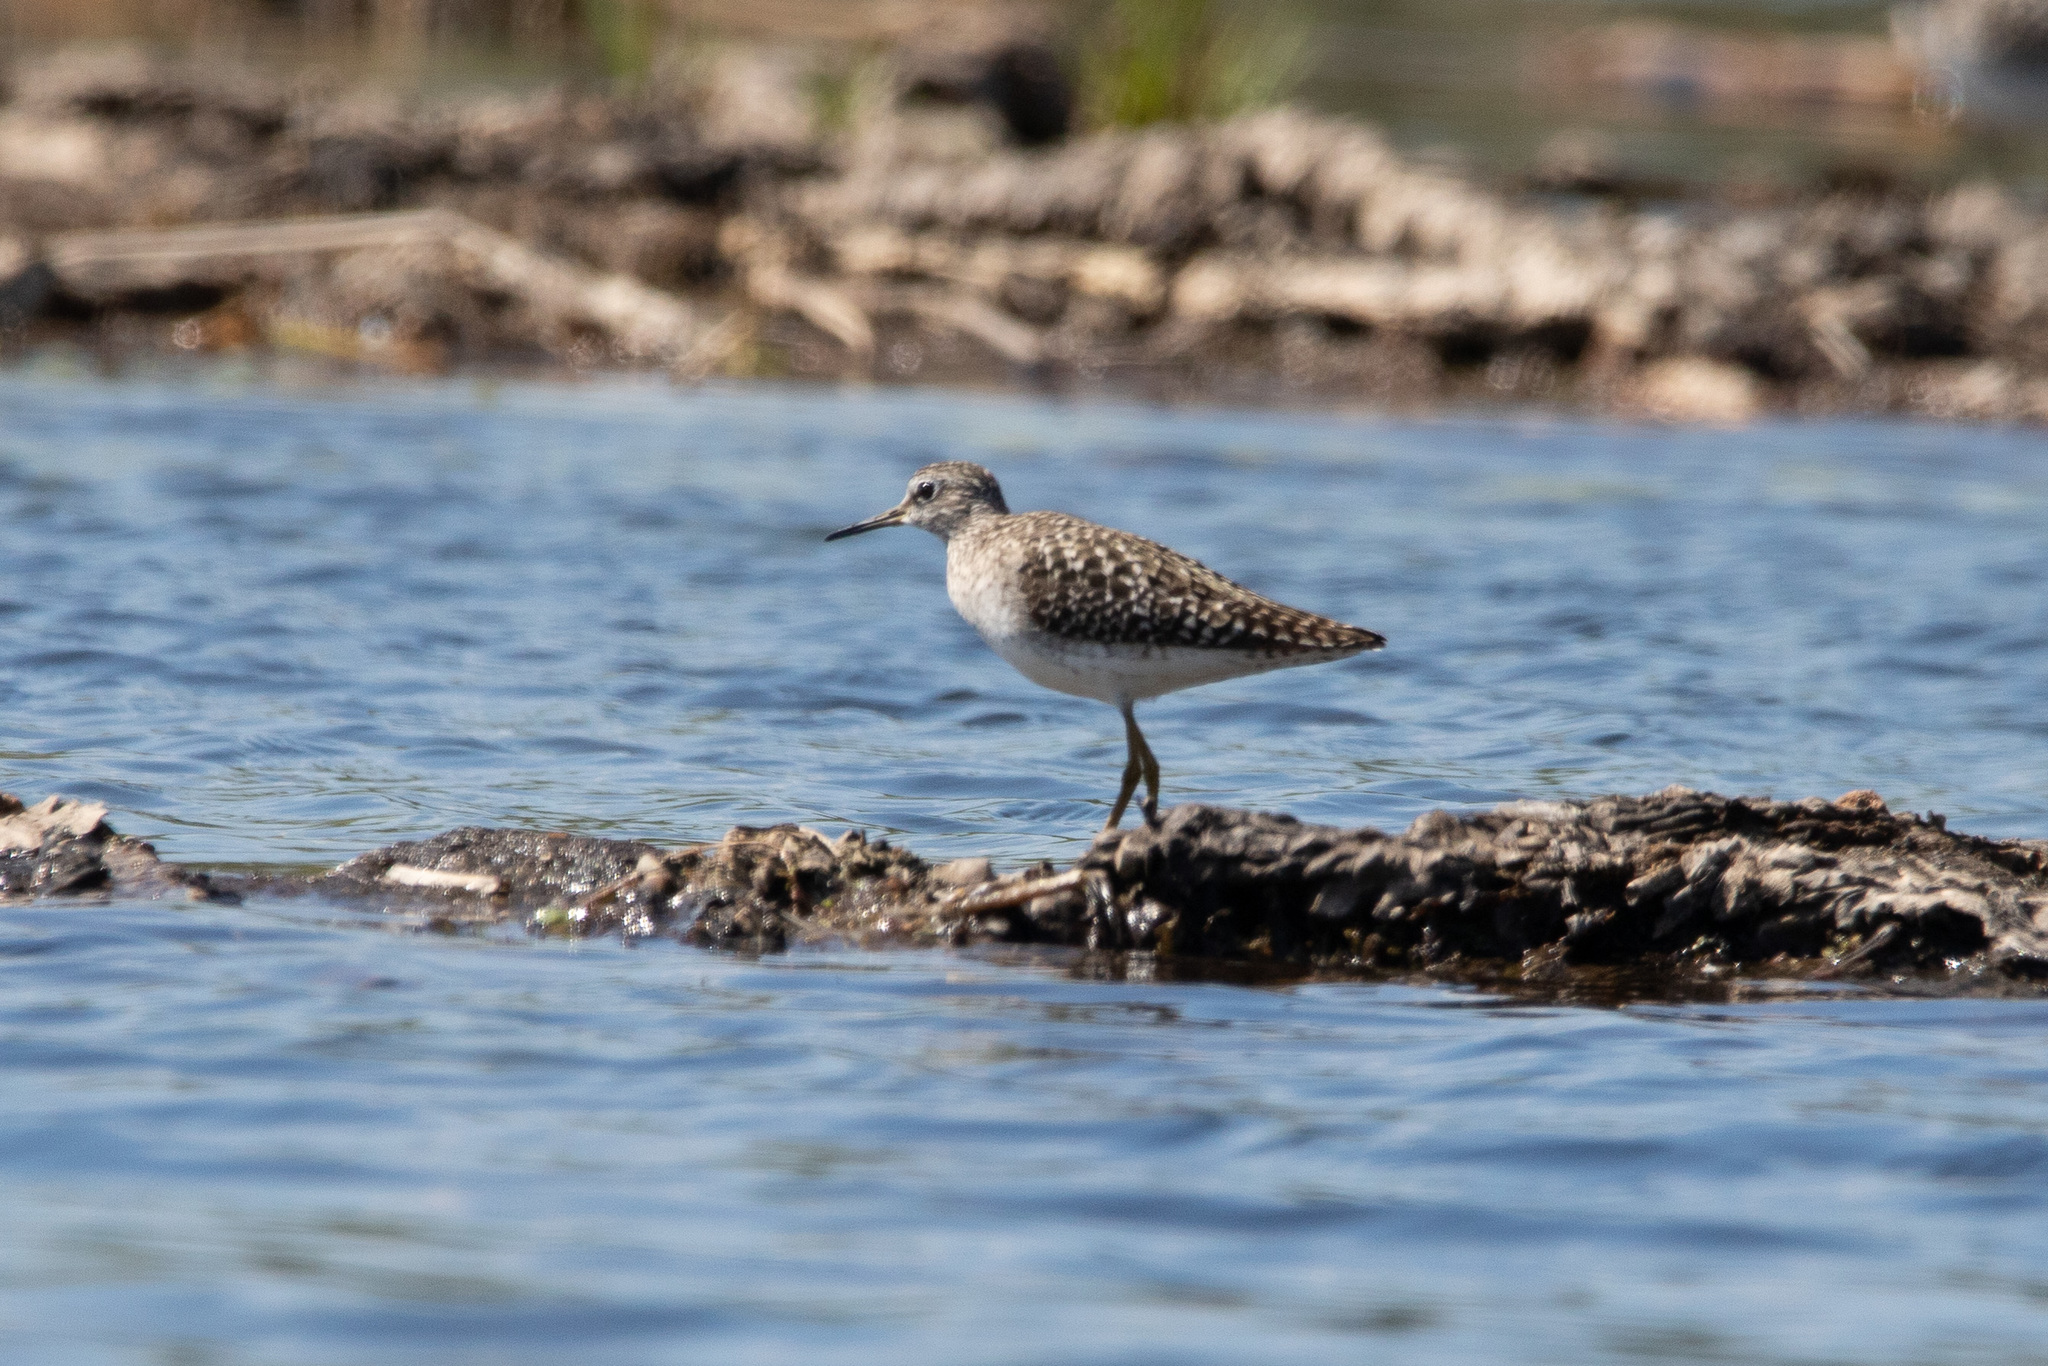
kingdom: Animalia
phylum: Chordata
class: Aves
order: Charadriiformes
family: Scolopacidae
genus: Tringa
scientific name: Tringa glareola
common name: Wood sandpiper
